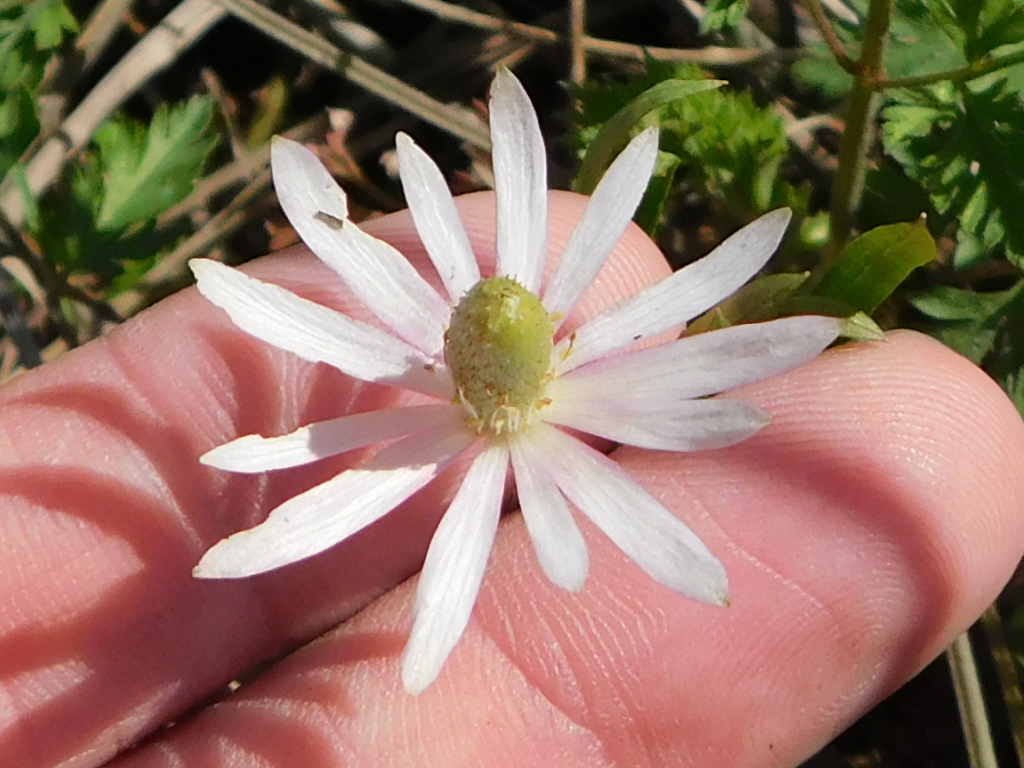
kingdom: Plantae
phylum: Tracheophyta
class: Magnoliopsida
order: Ranunculales
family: Ranunculaceae
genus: Anemone
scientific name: Anemone berlandieri
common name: Ten-petal anemone
